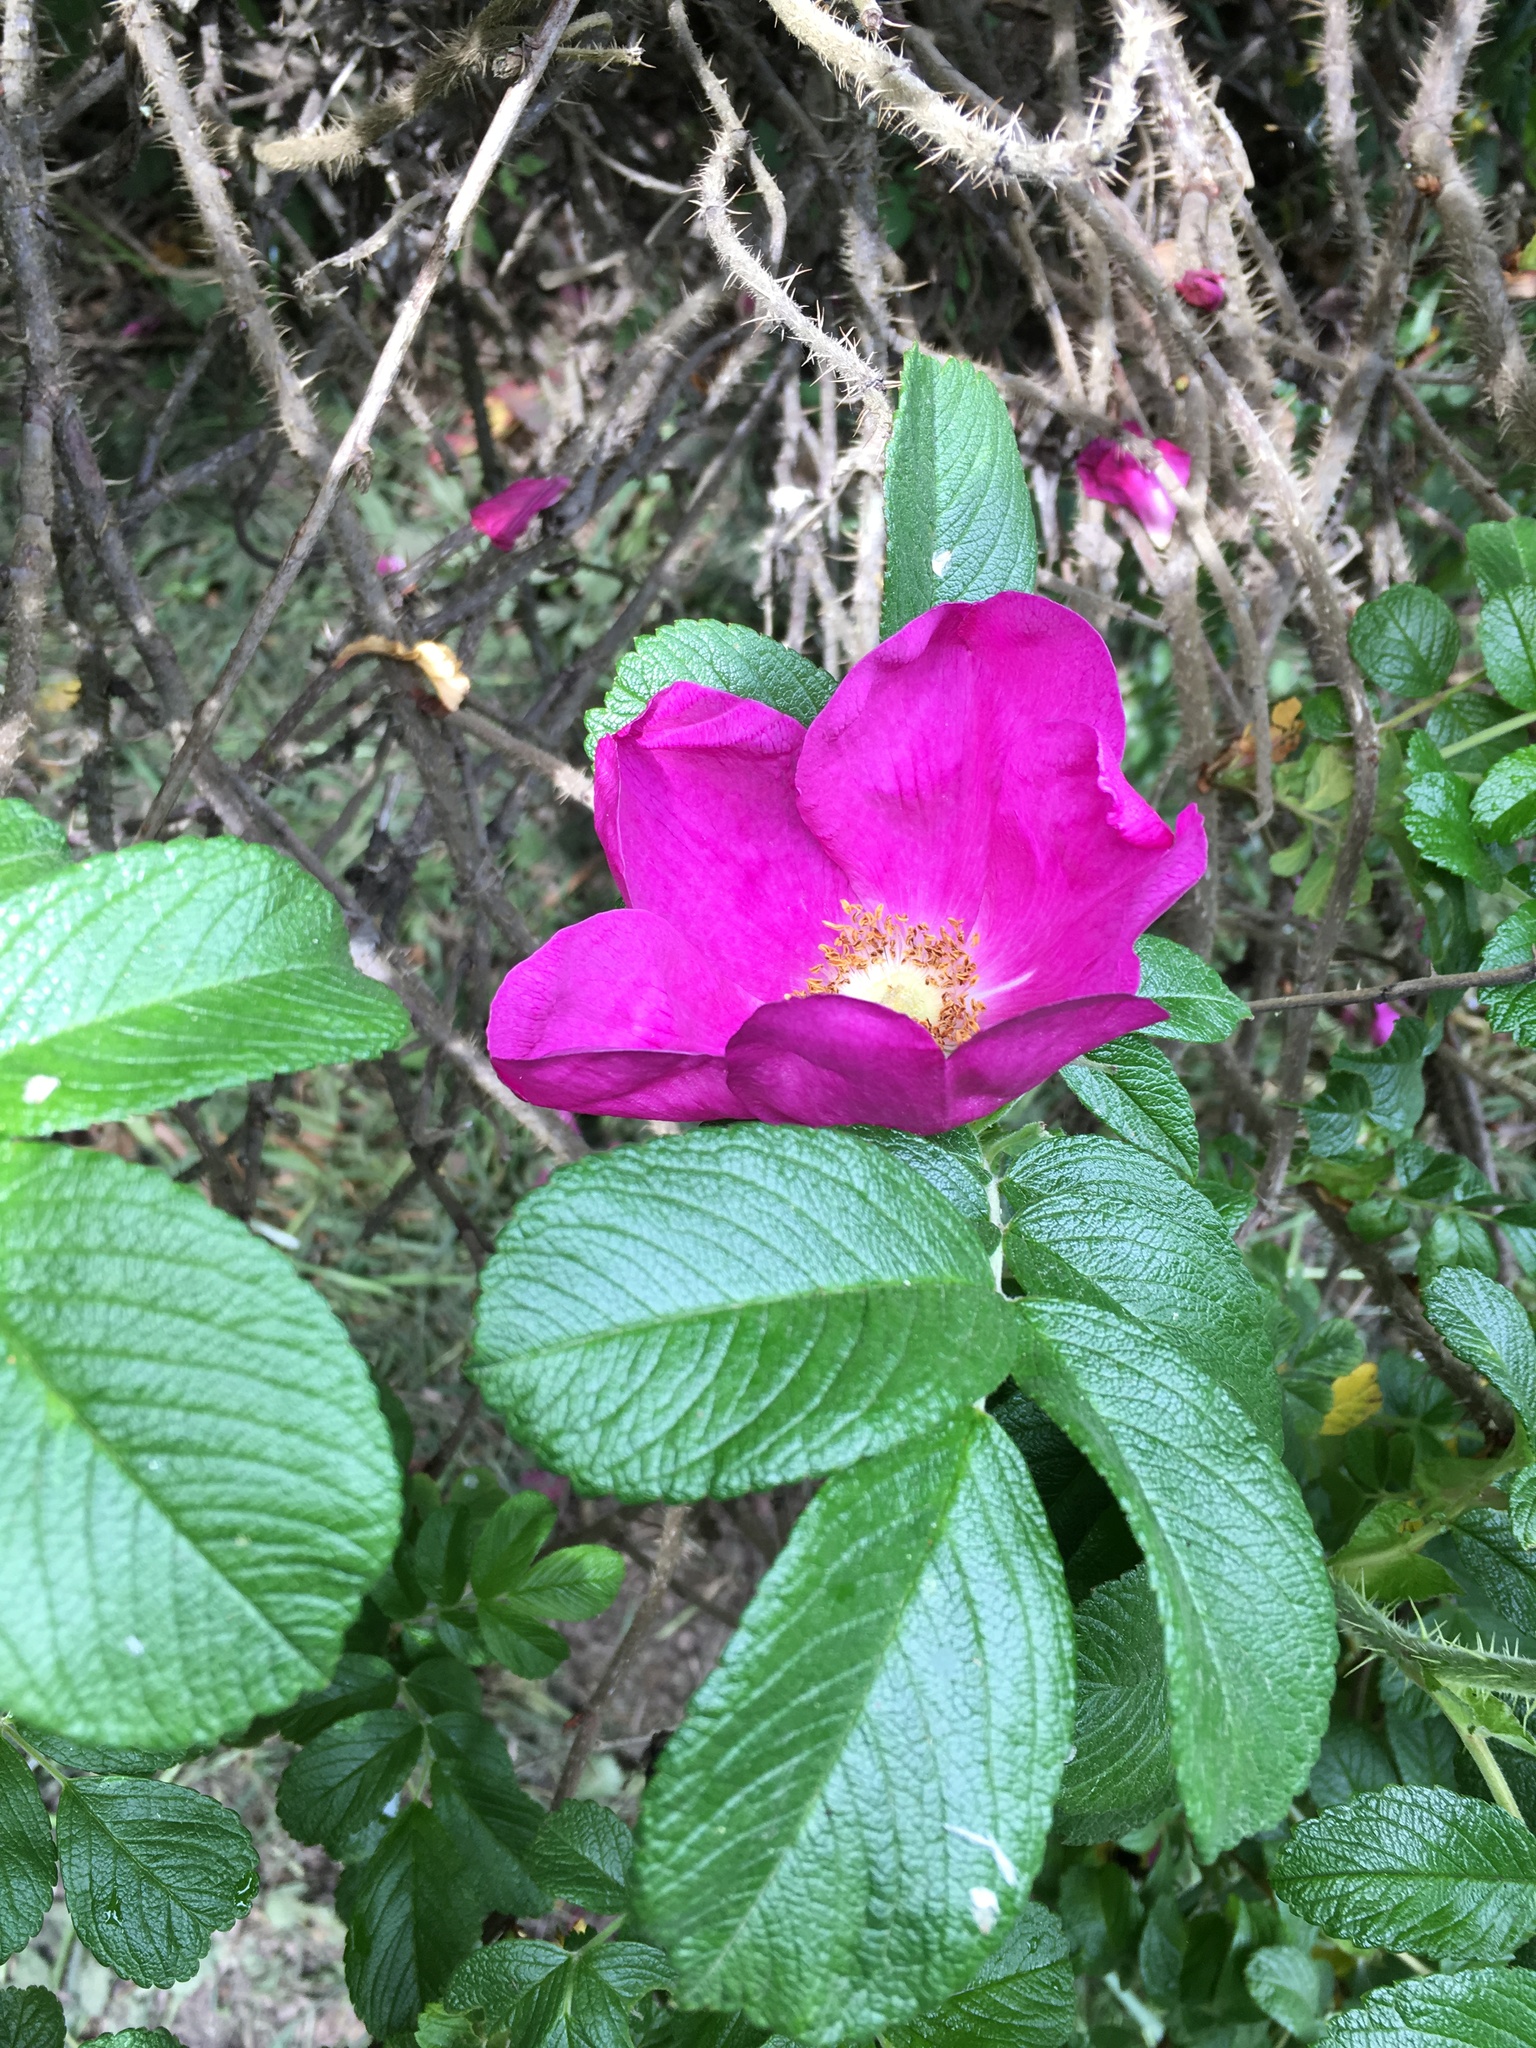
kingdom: Plantae
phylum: Tracheophyta
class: Magnoliopsida
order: Rosales
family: Rosaceae
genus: Rosa
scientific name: Rosa rugosa
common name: Japanese rose
